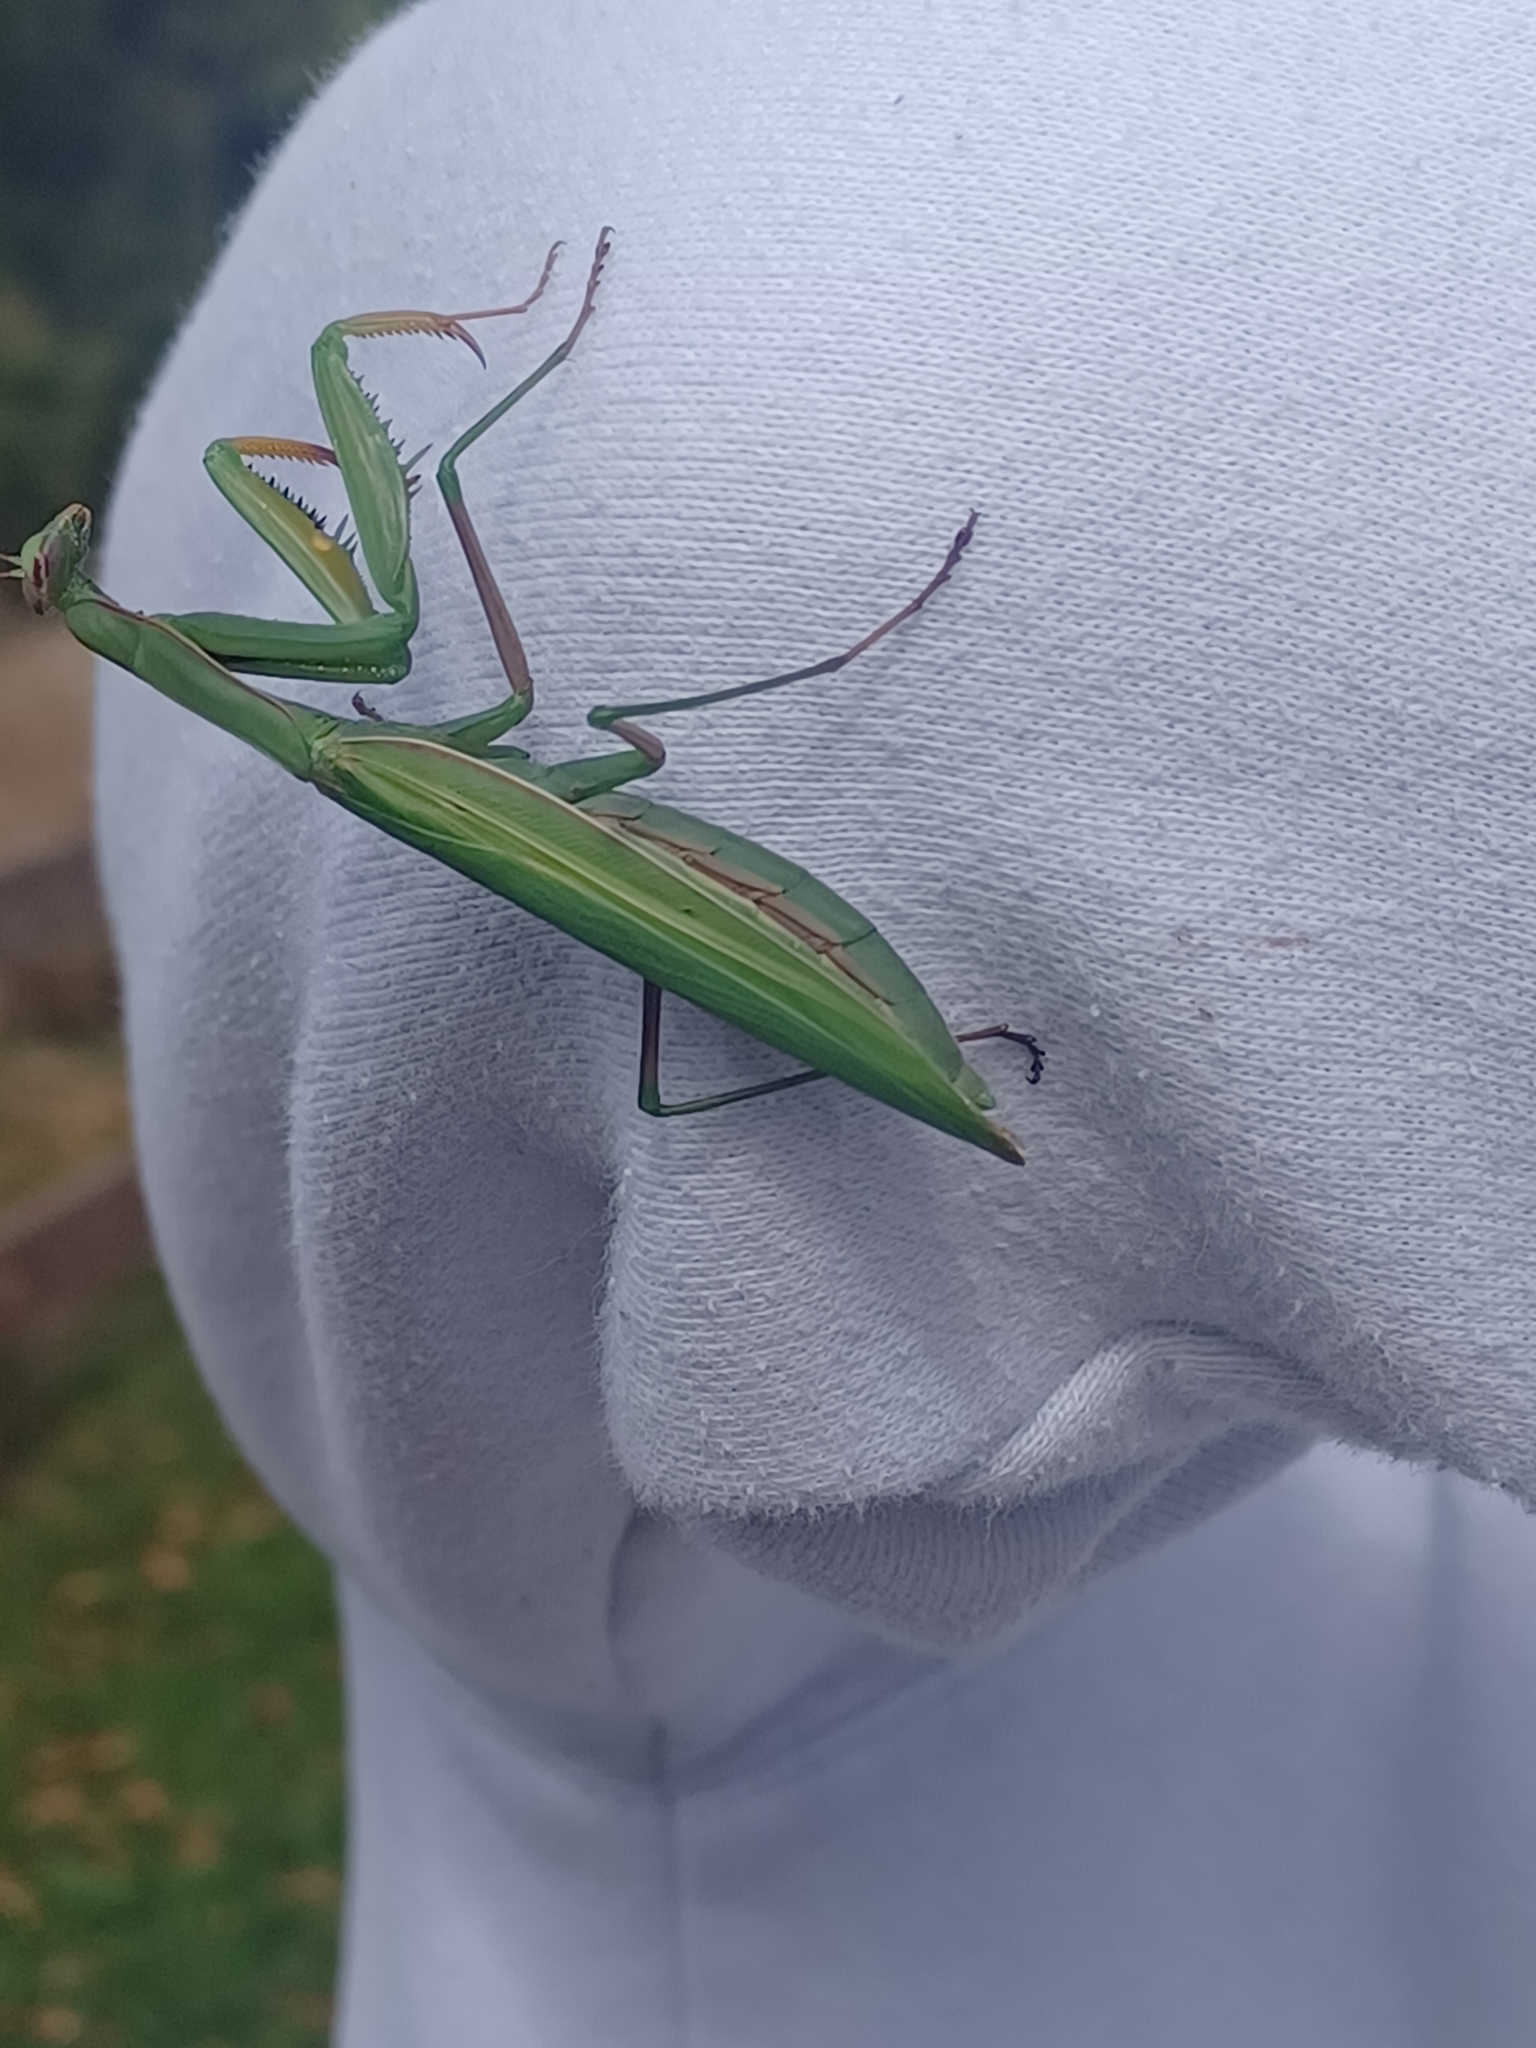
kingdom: Animalia
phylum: Arthropoda
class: Insecta
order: Mantodea
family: Mantidae
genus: Mantis
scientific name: Mantis religiosa
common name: Praying mantis
